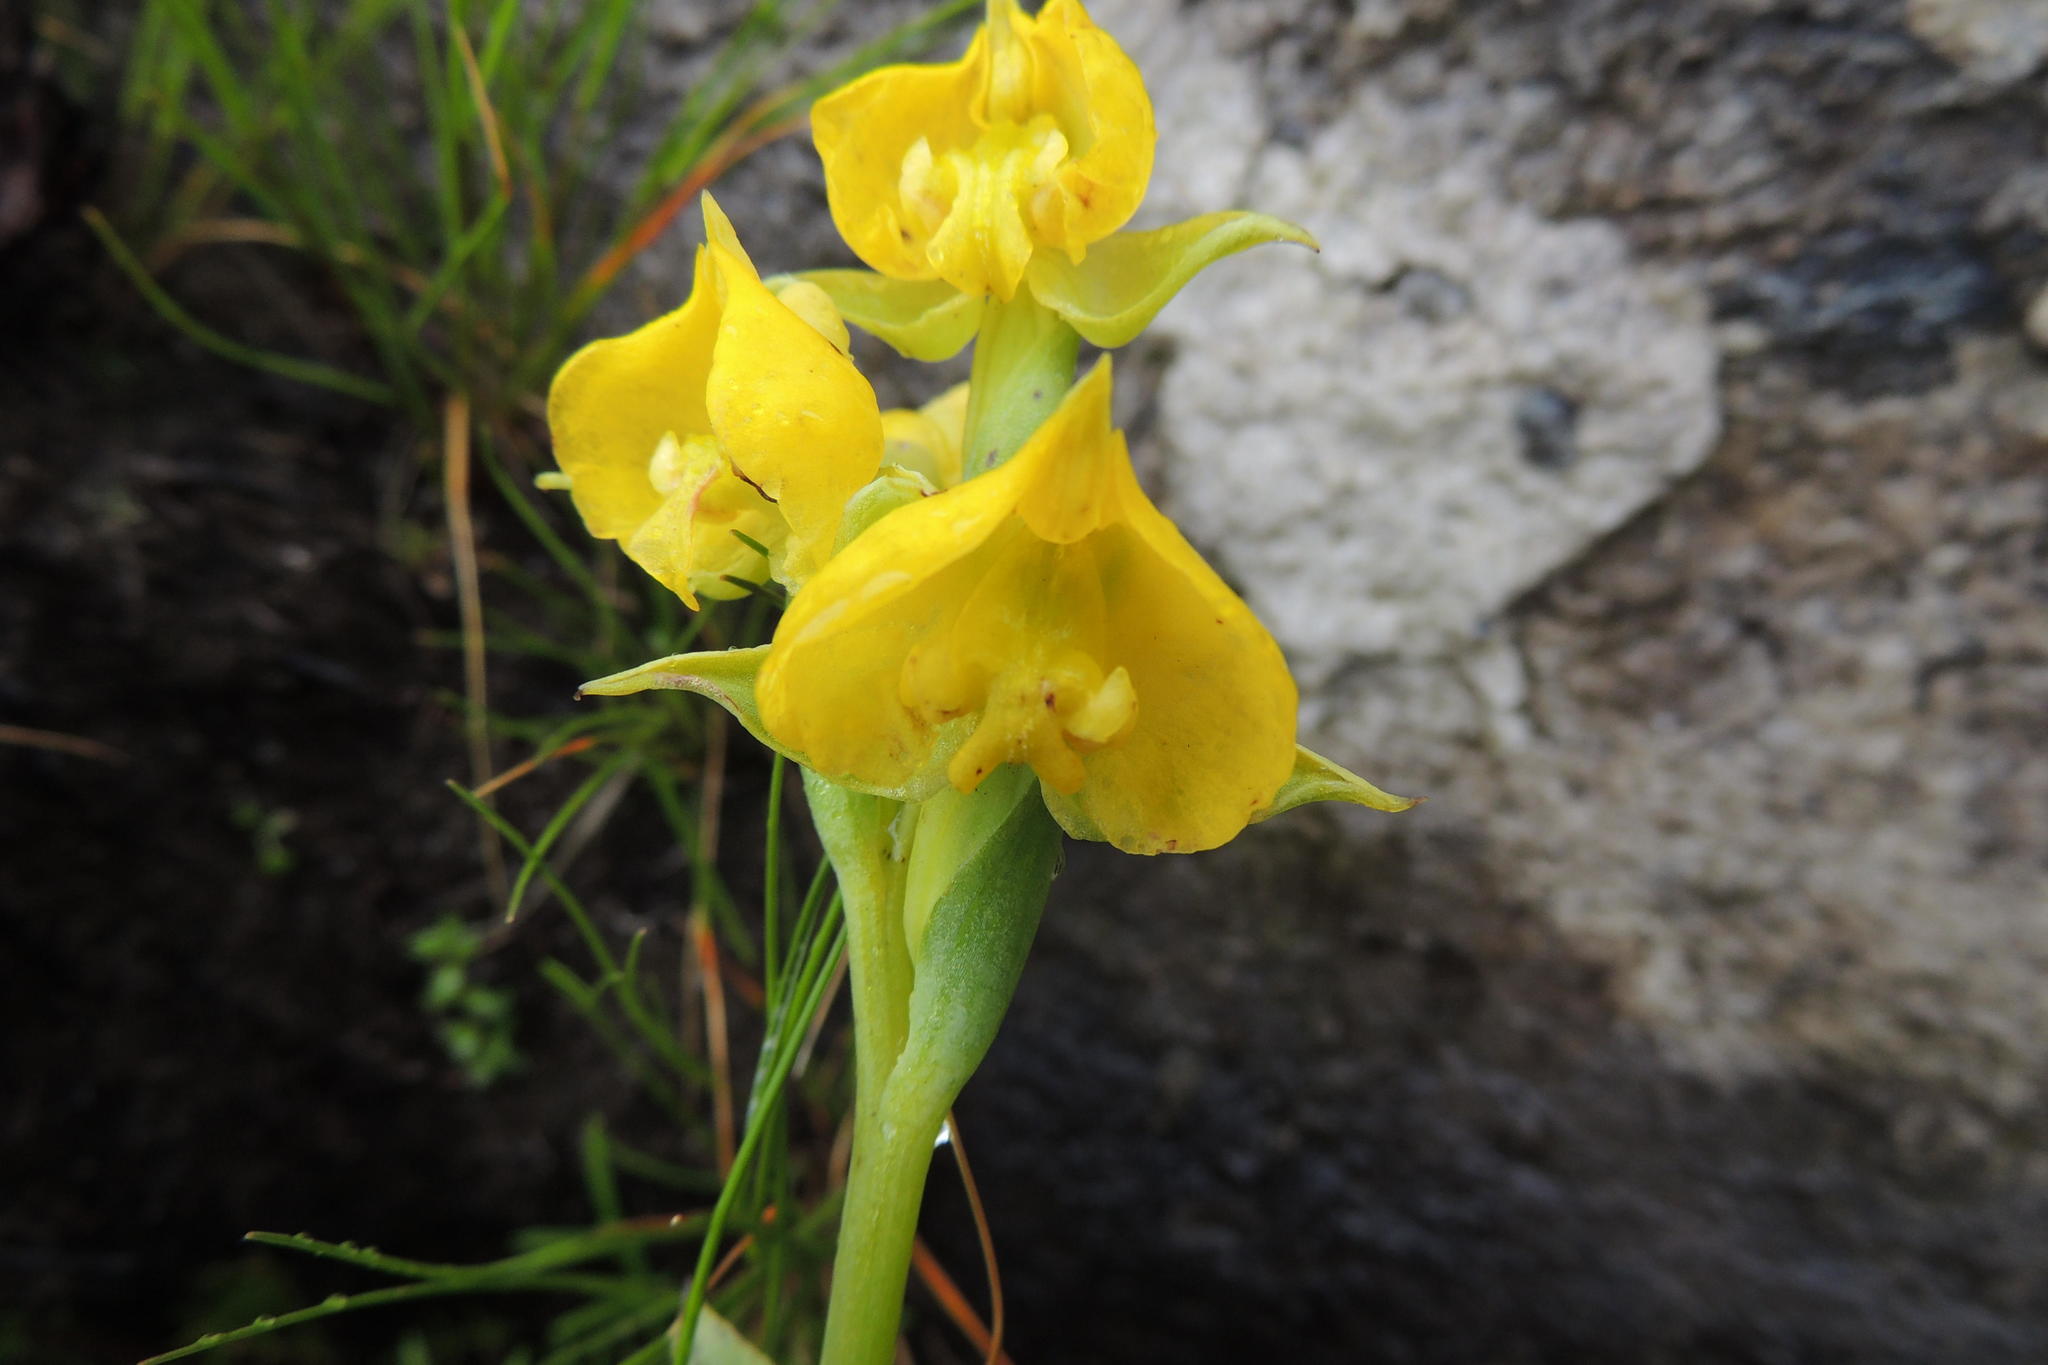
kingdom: Plantae
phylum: Tracheophyta
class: Liliopsida
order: Asparagales
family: Orchidaceae
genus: Pterygodium
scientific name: Pterygodium acutifolium
